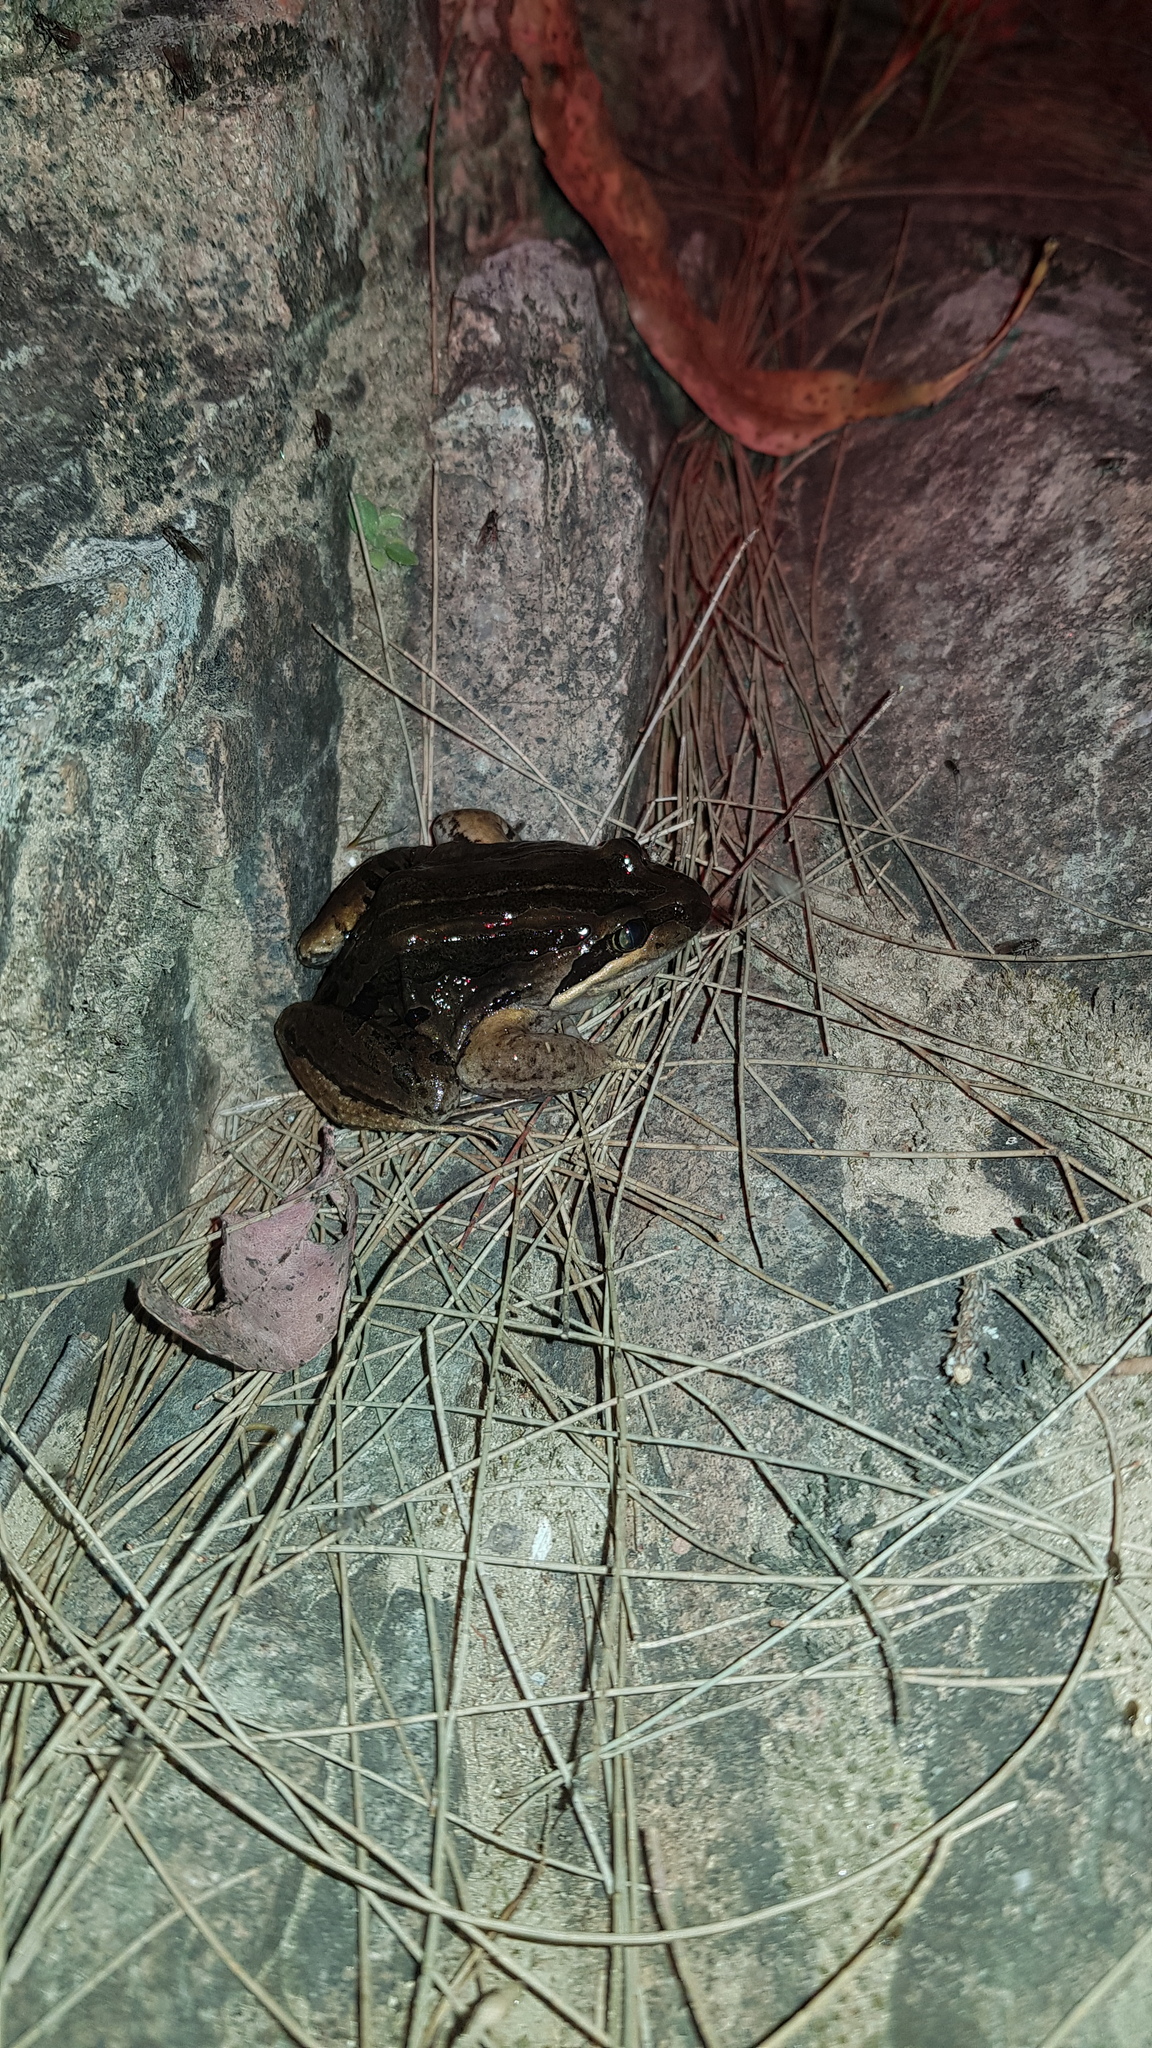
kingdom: Animalia
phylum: Chordata
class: Amphibia
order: Anura
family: Limnodynastidae
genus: Limnodynastes
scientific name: Limnodynastes peronii
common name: Brown frog
